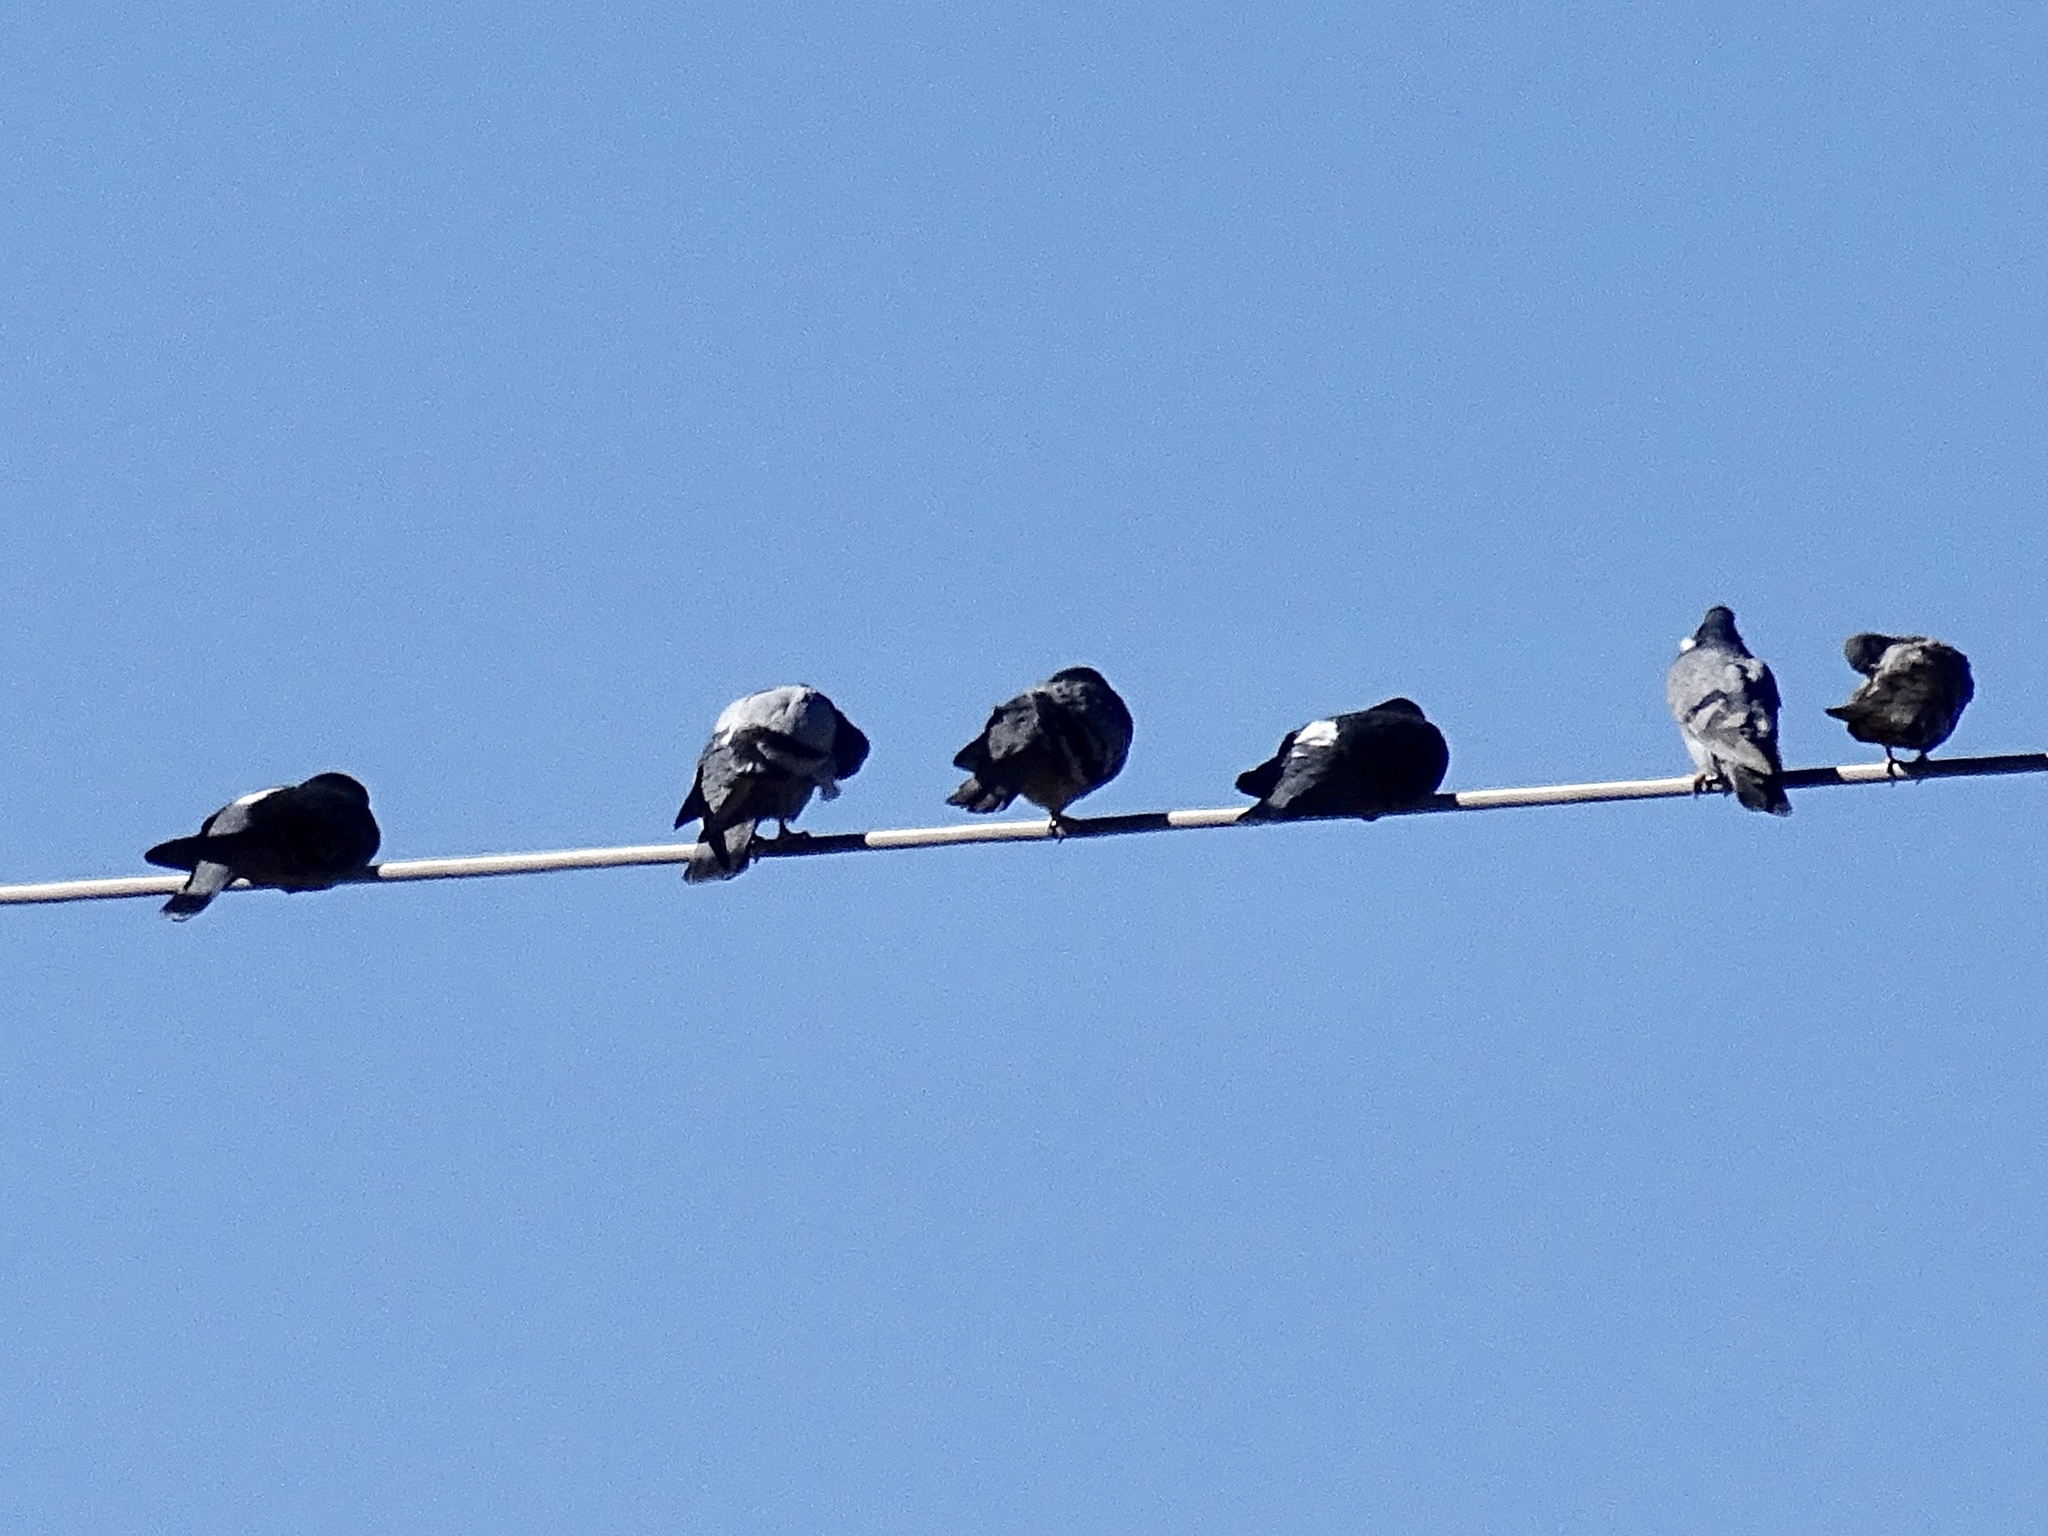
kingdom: Animalia
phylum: Chordata
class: Aves
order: Columbiformes
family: Columbidae
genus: Columba
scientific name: Columba livia
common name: Rock pigeon
